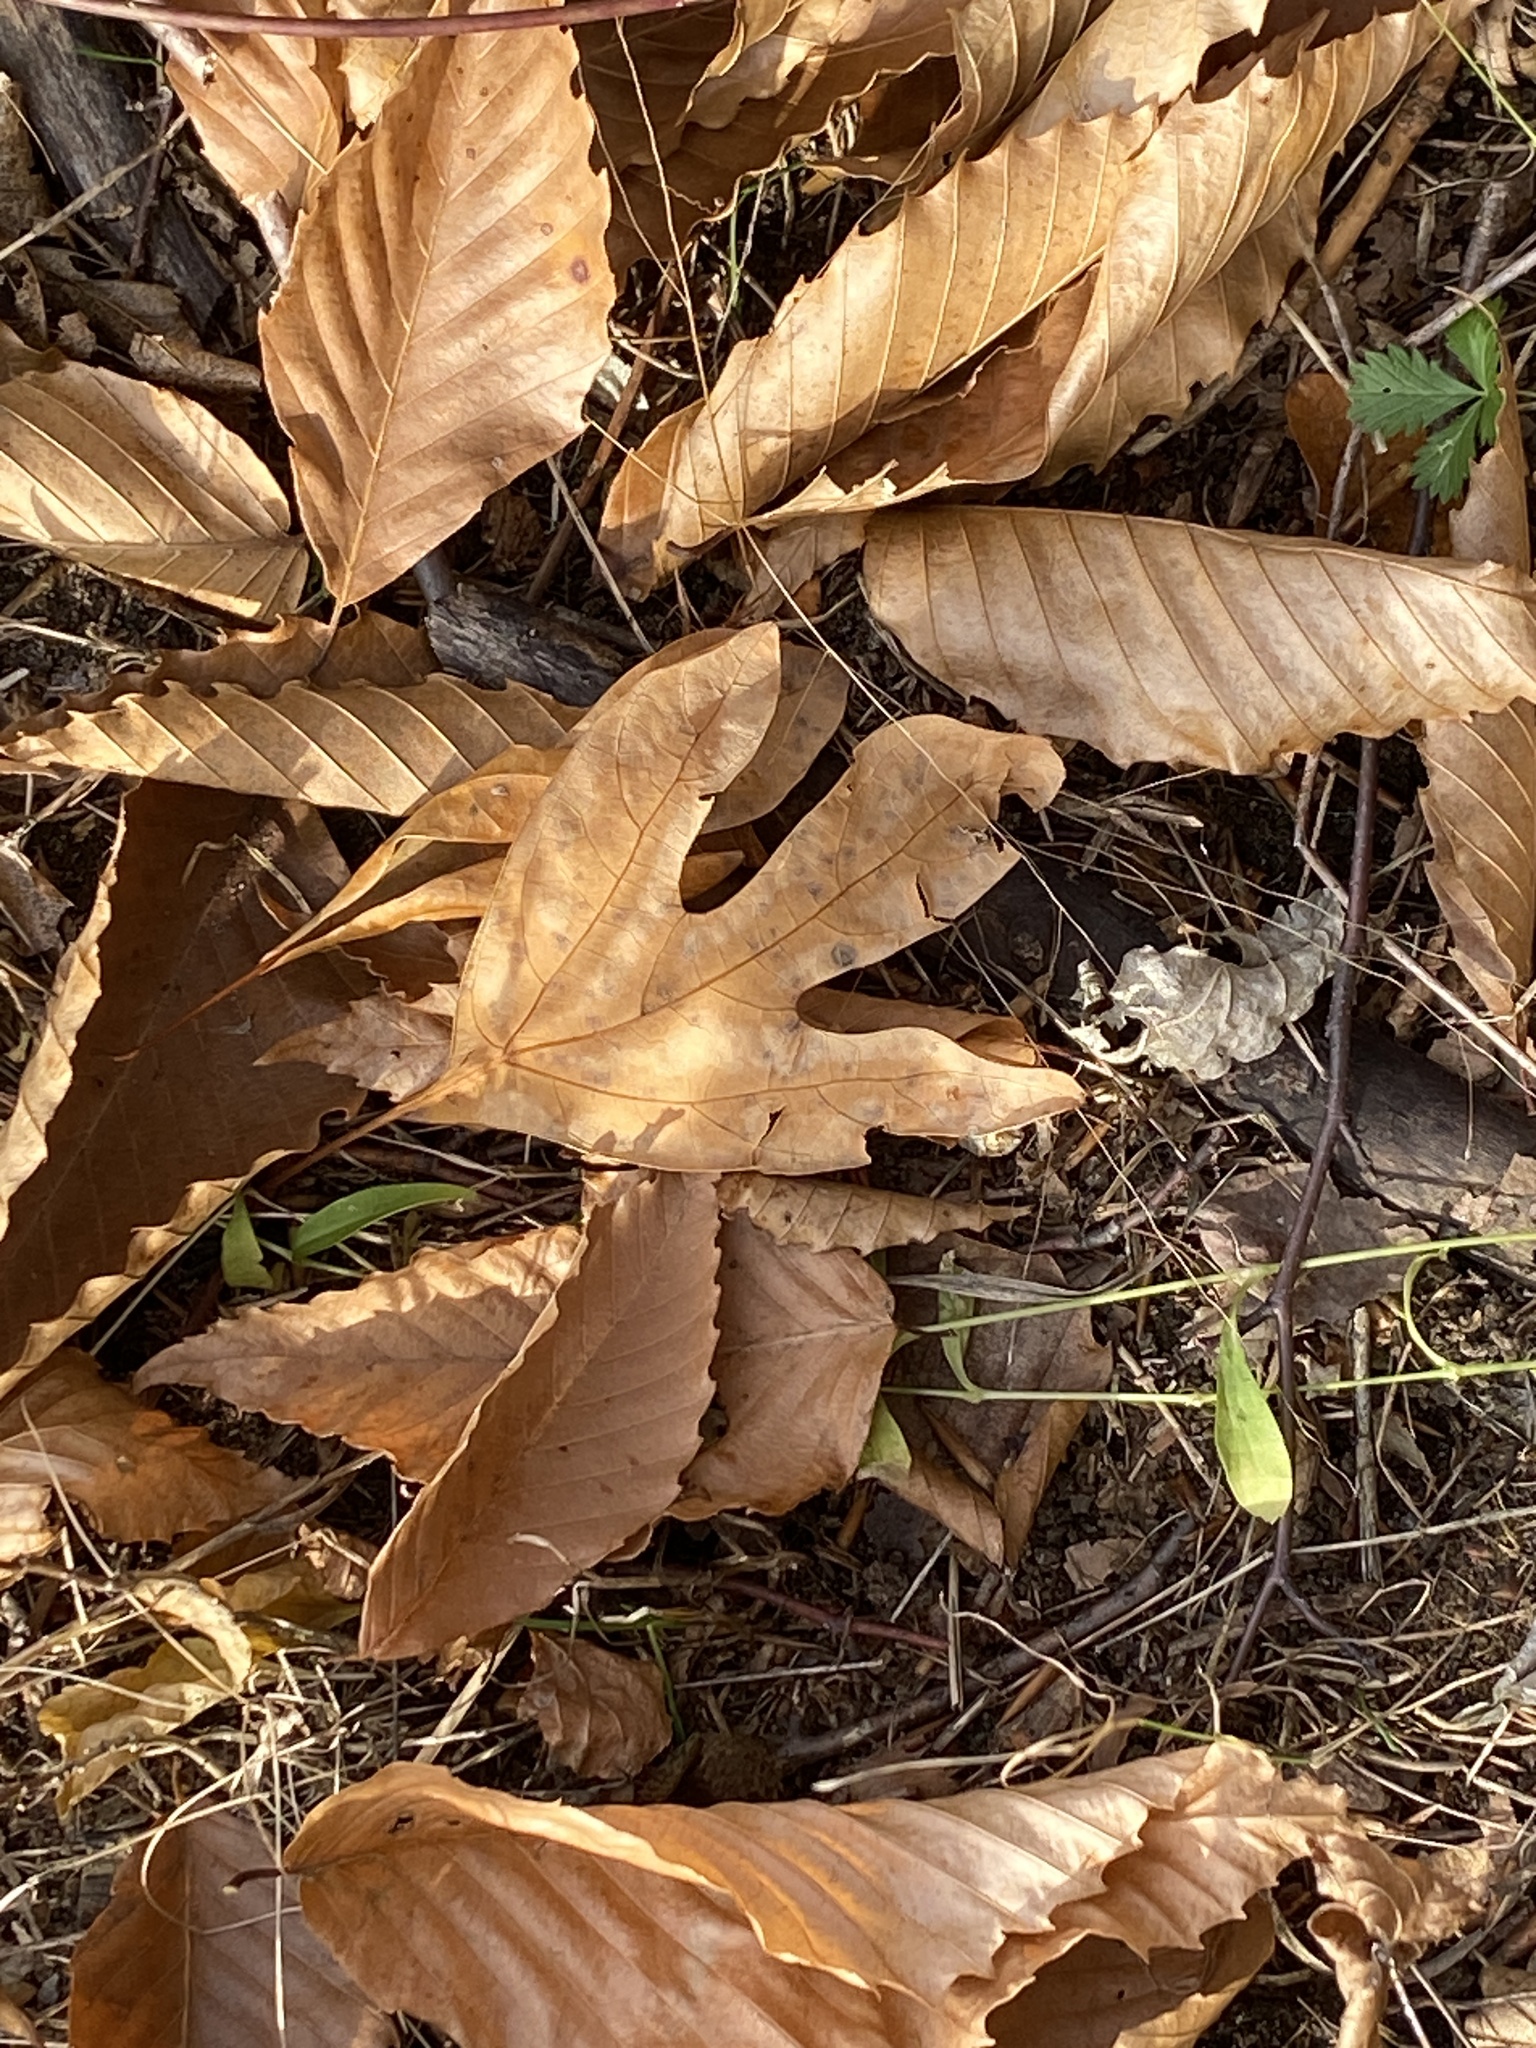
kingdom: Plantae
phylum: Tracheophyta
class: Magnoliopsida
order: Laurales
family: Lauraceae
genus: Sassafras
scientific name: Sassafras albidum
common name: Sassafras
